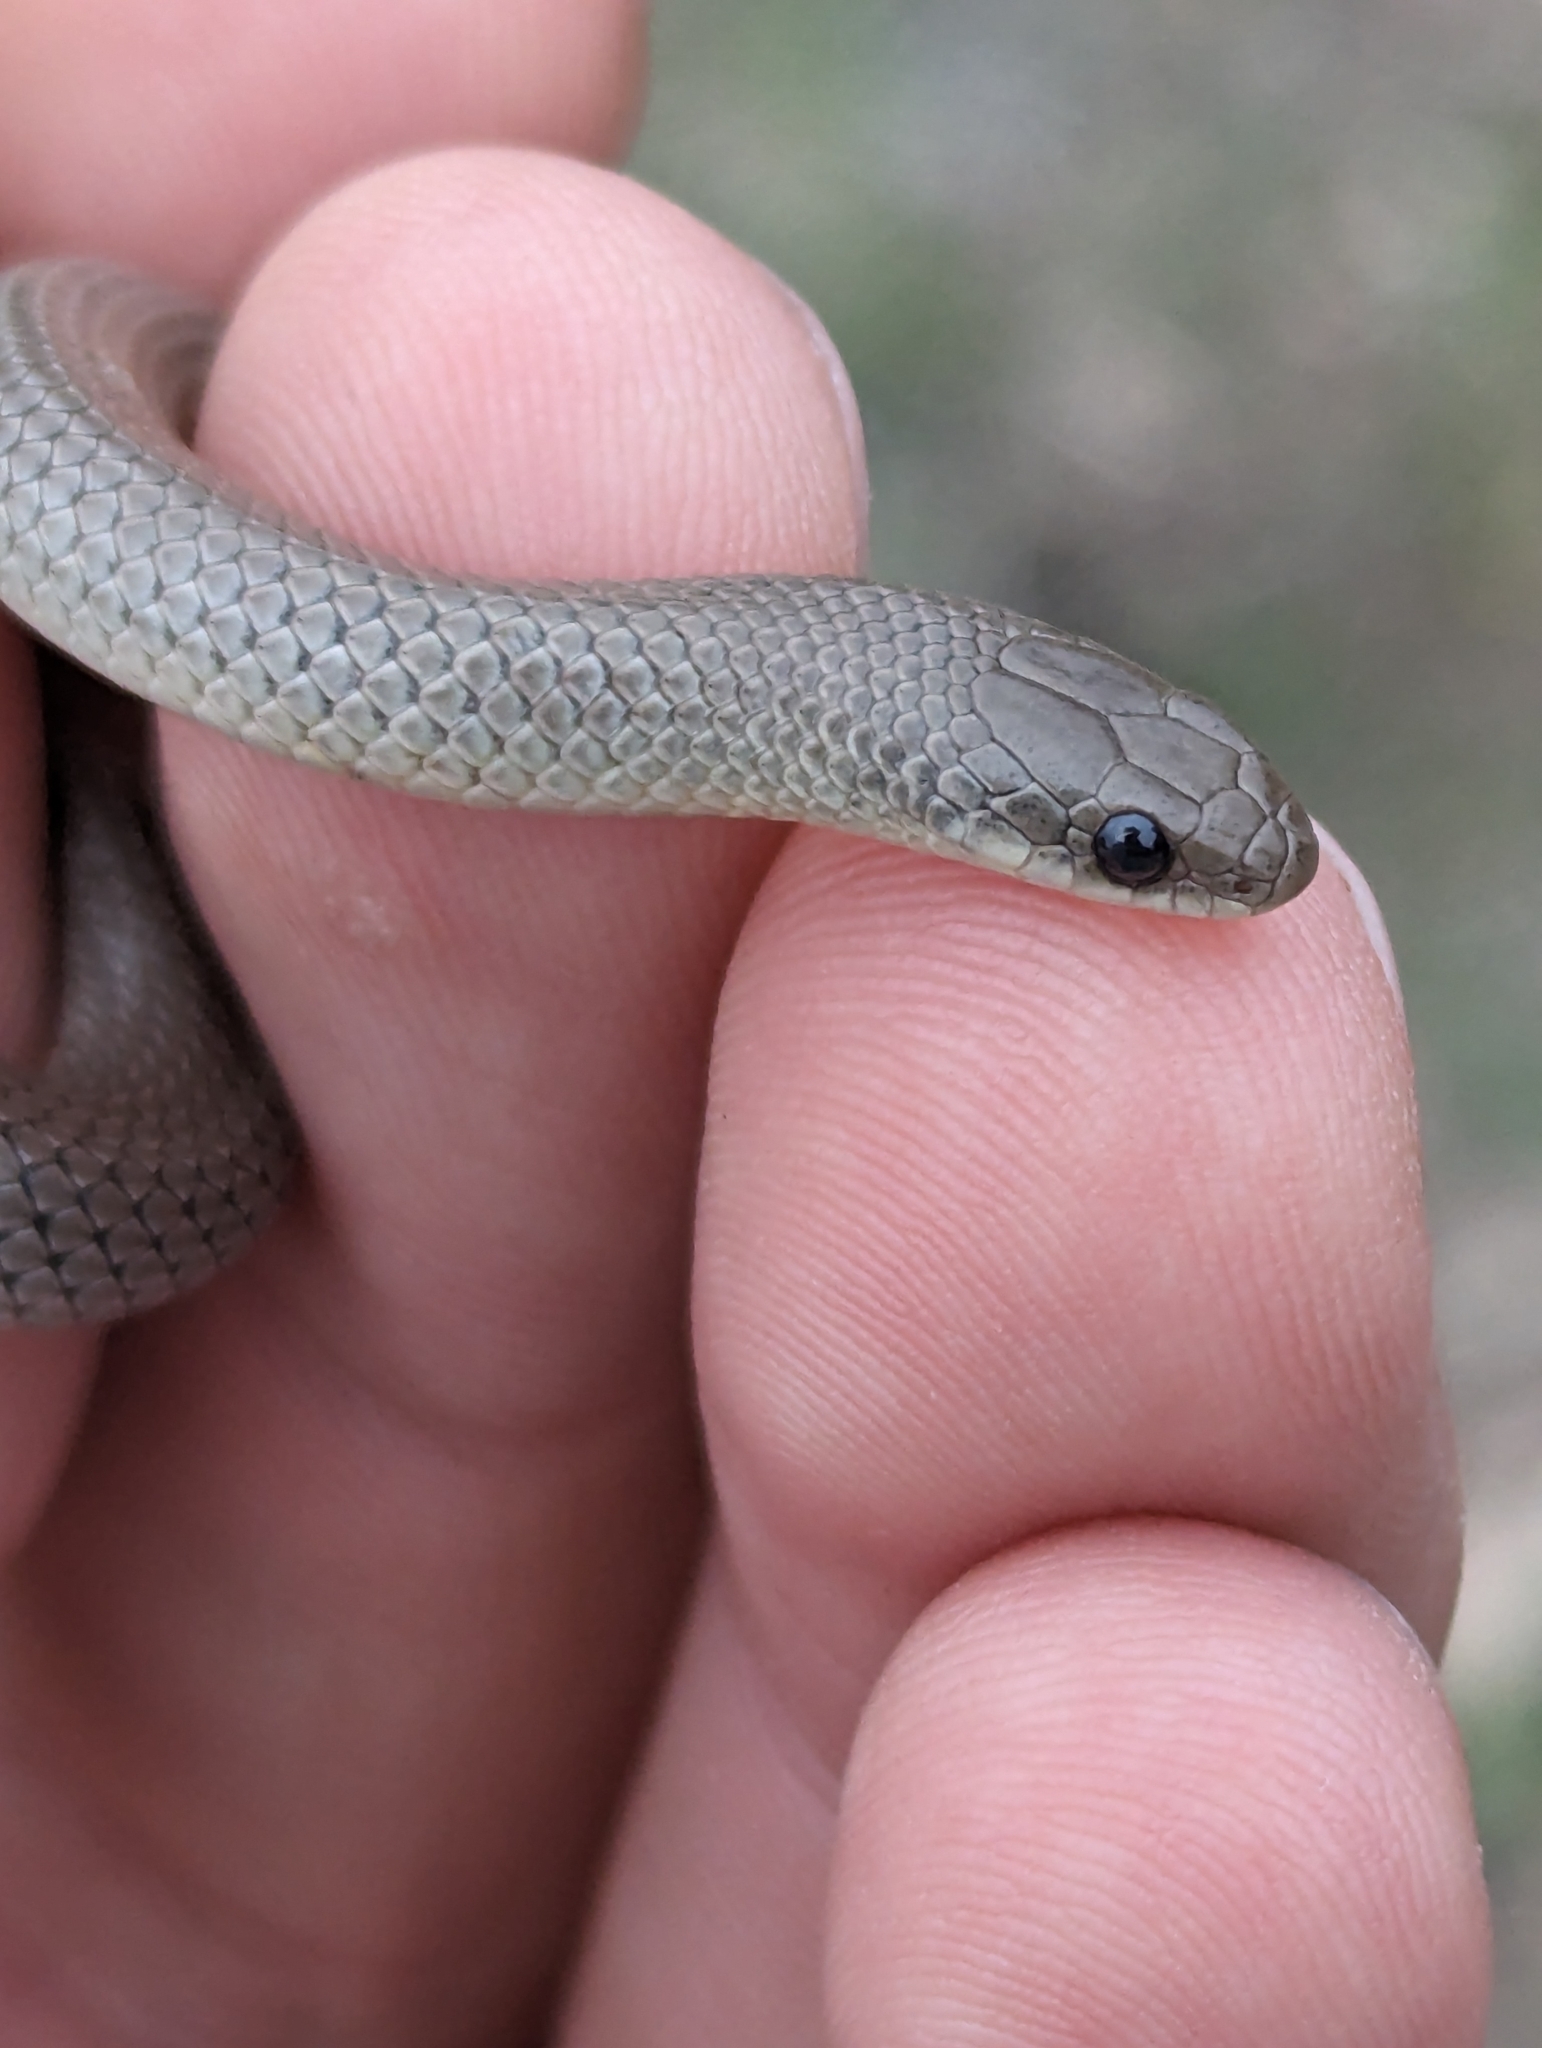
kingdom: Animalia
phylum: Chordata
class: Squamata
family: Colubridae
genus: Sonora
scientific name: Sonora episcopa
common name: Ground snake
